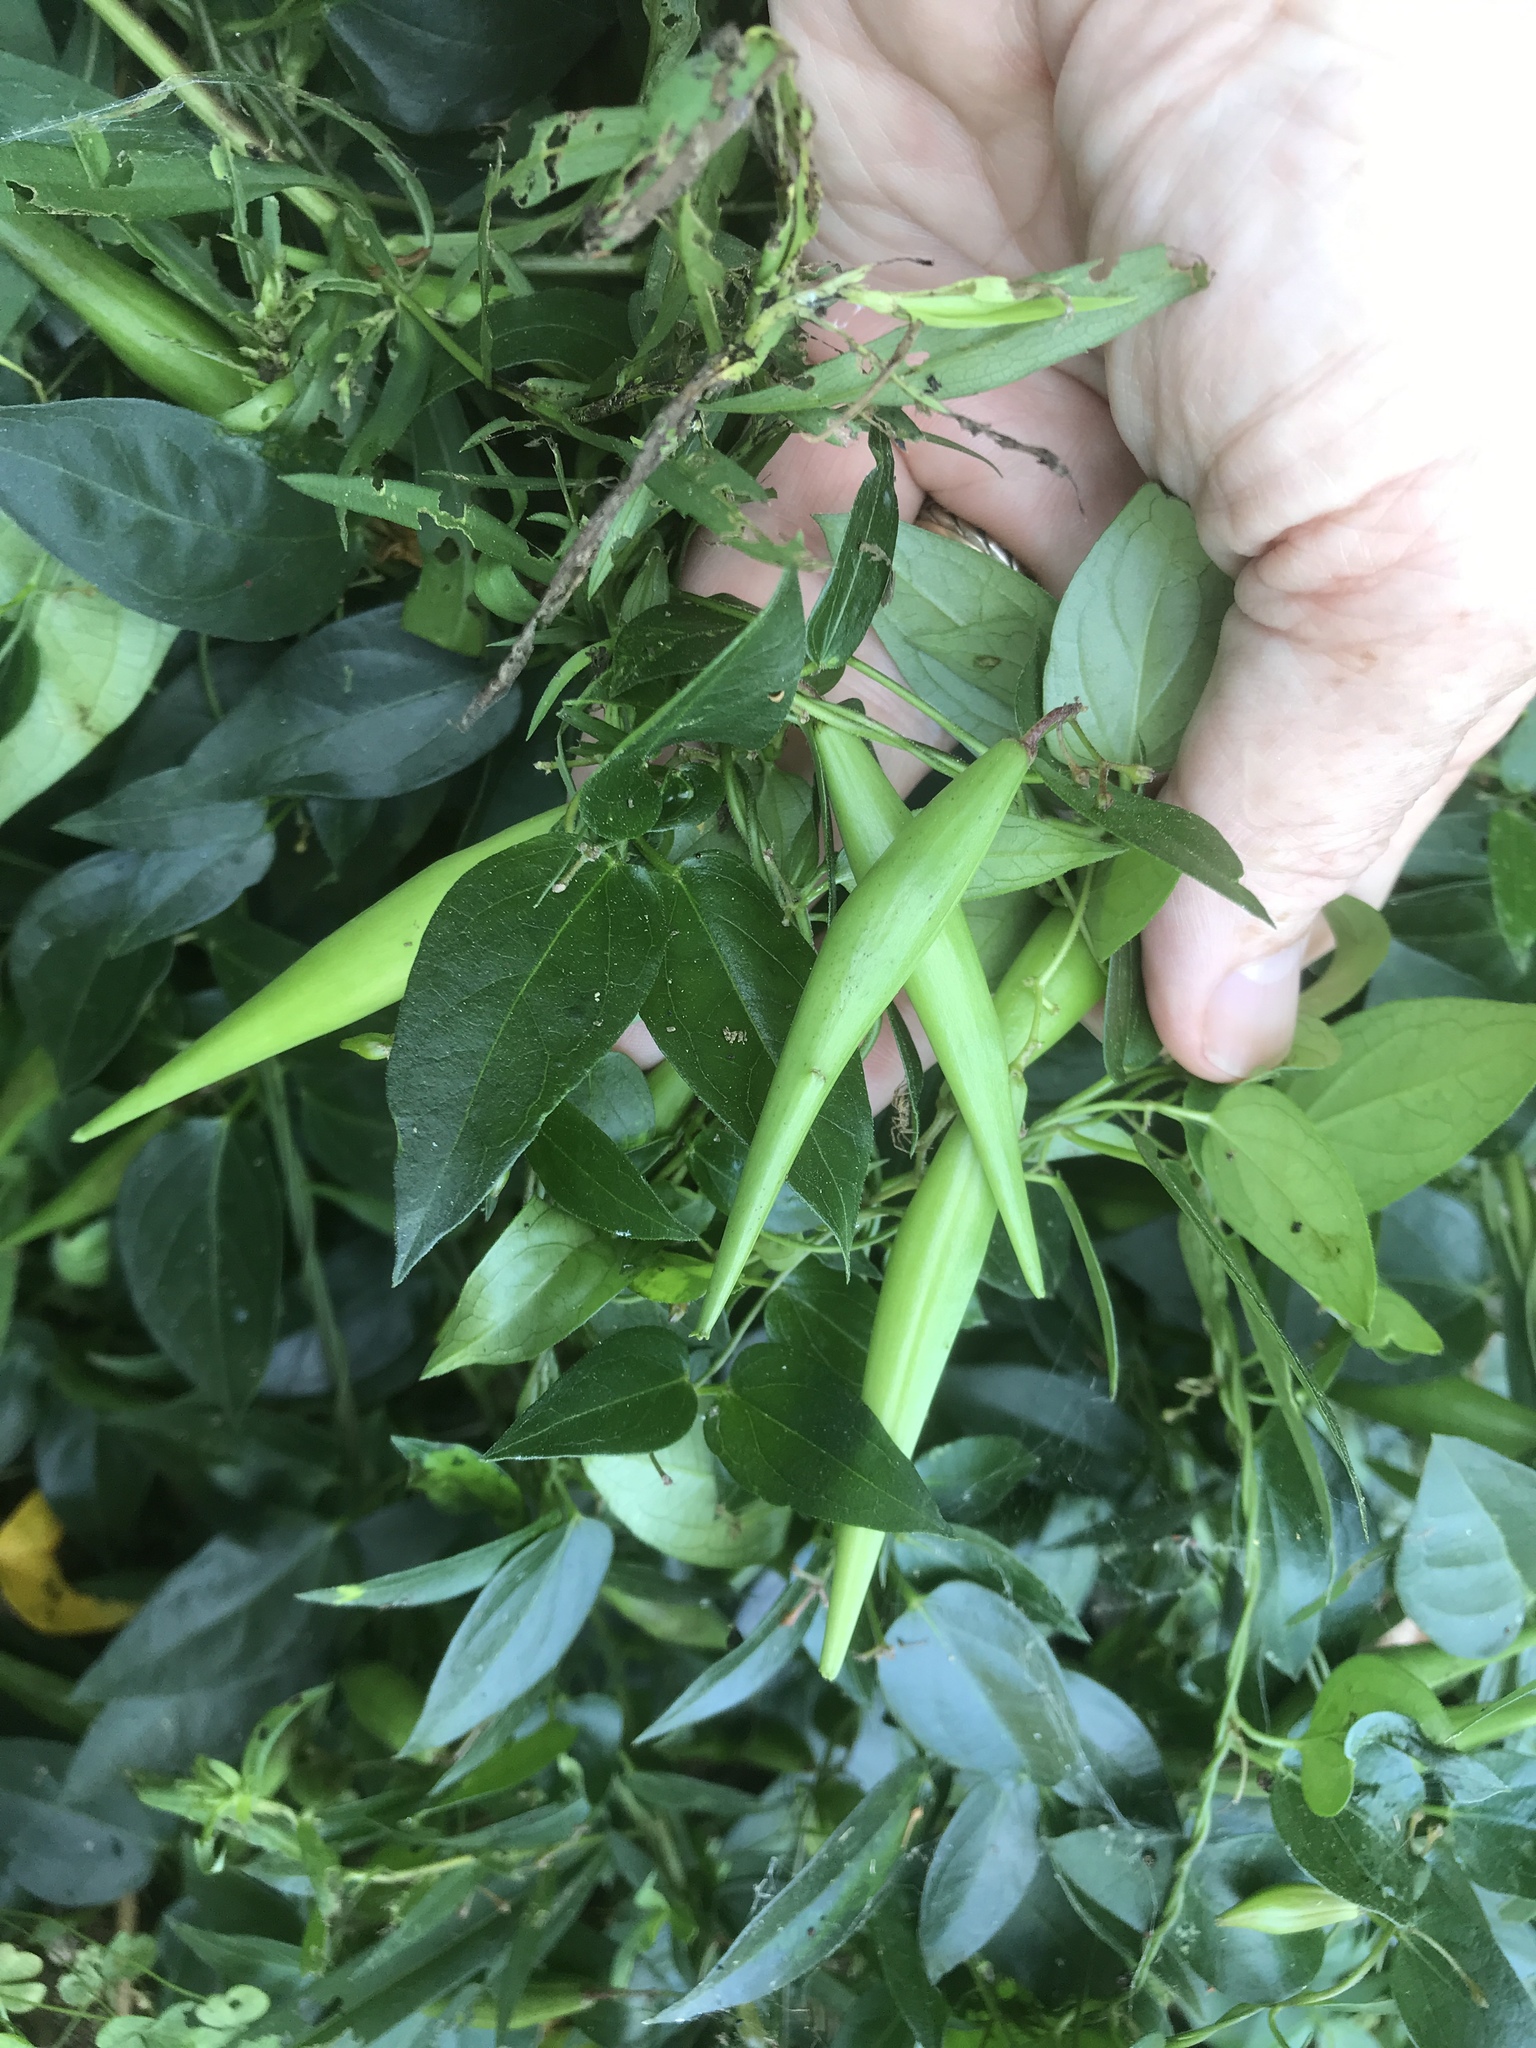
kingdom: Plantae
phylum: Tracheophyta
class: Magnoliopsida
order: Gentianales
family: Apocynaceae
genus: Vincetoxicum
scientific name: Vincetoxicum nigrum
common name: Black swallow-wort
